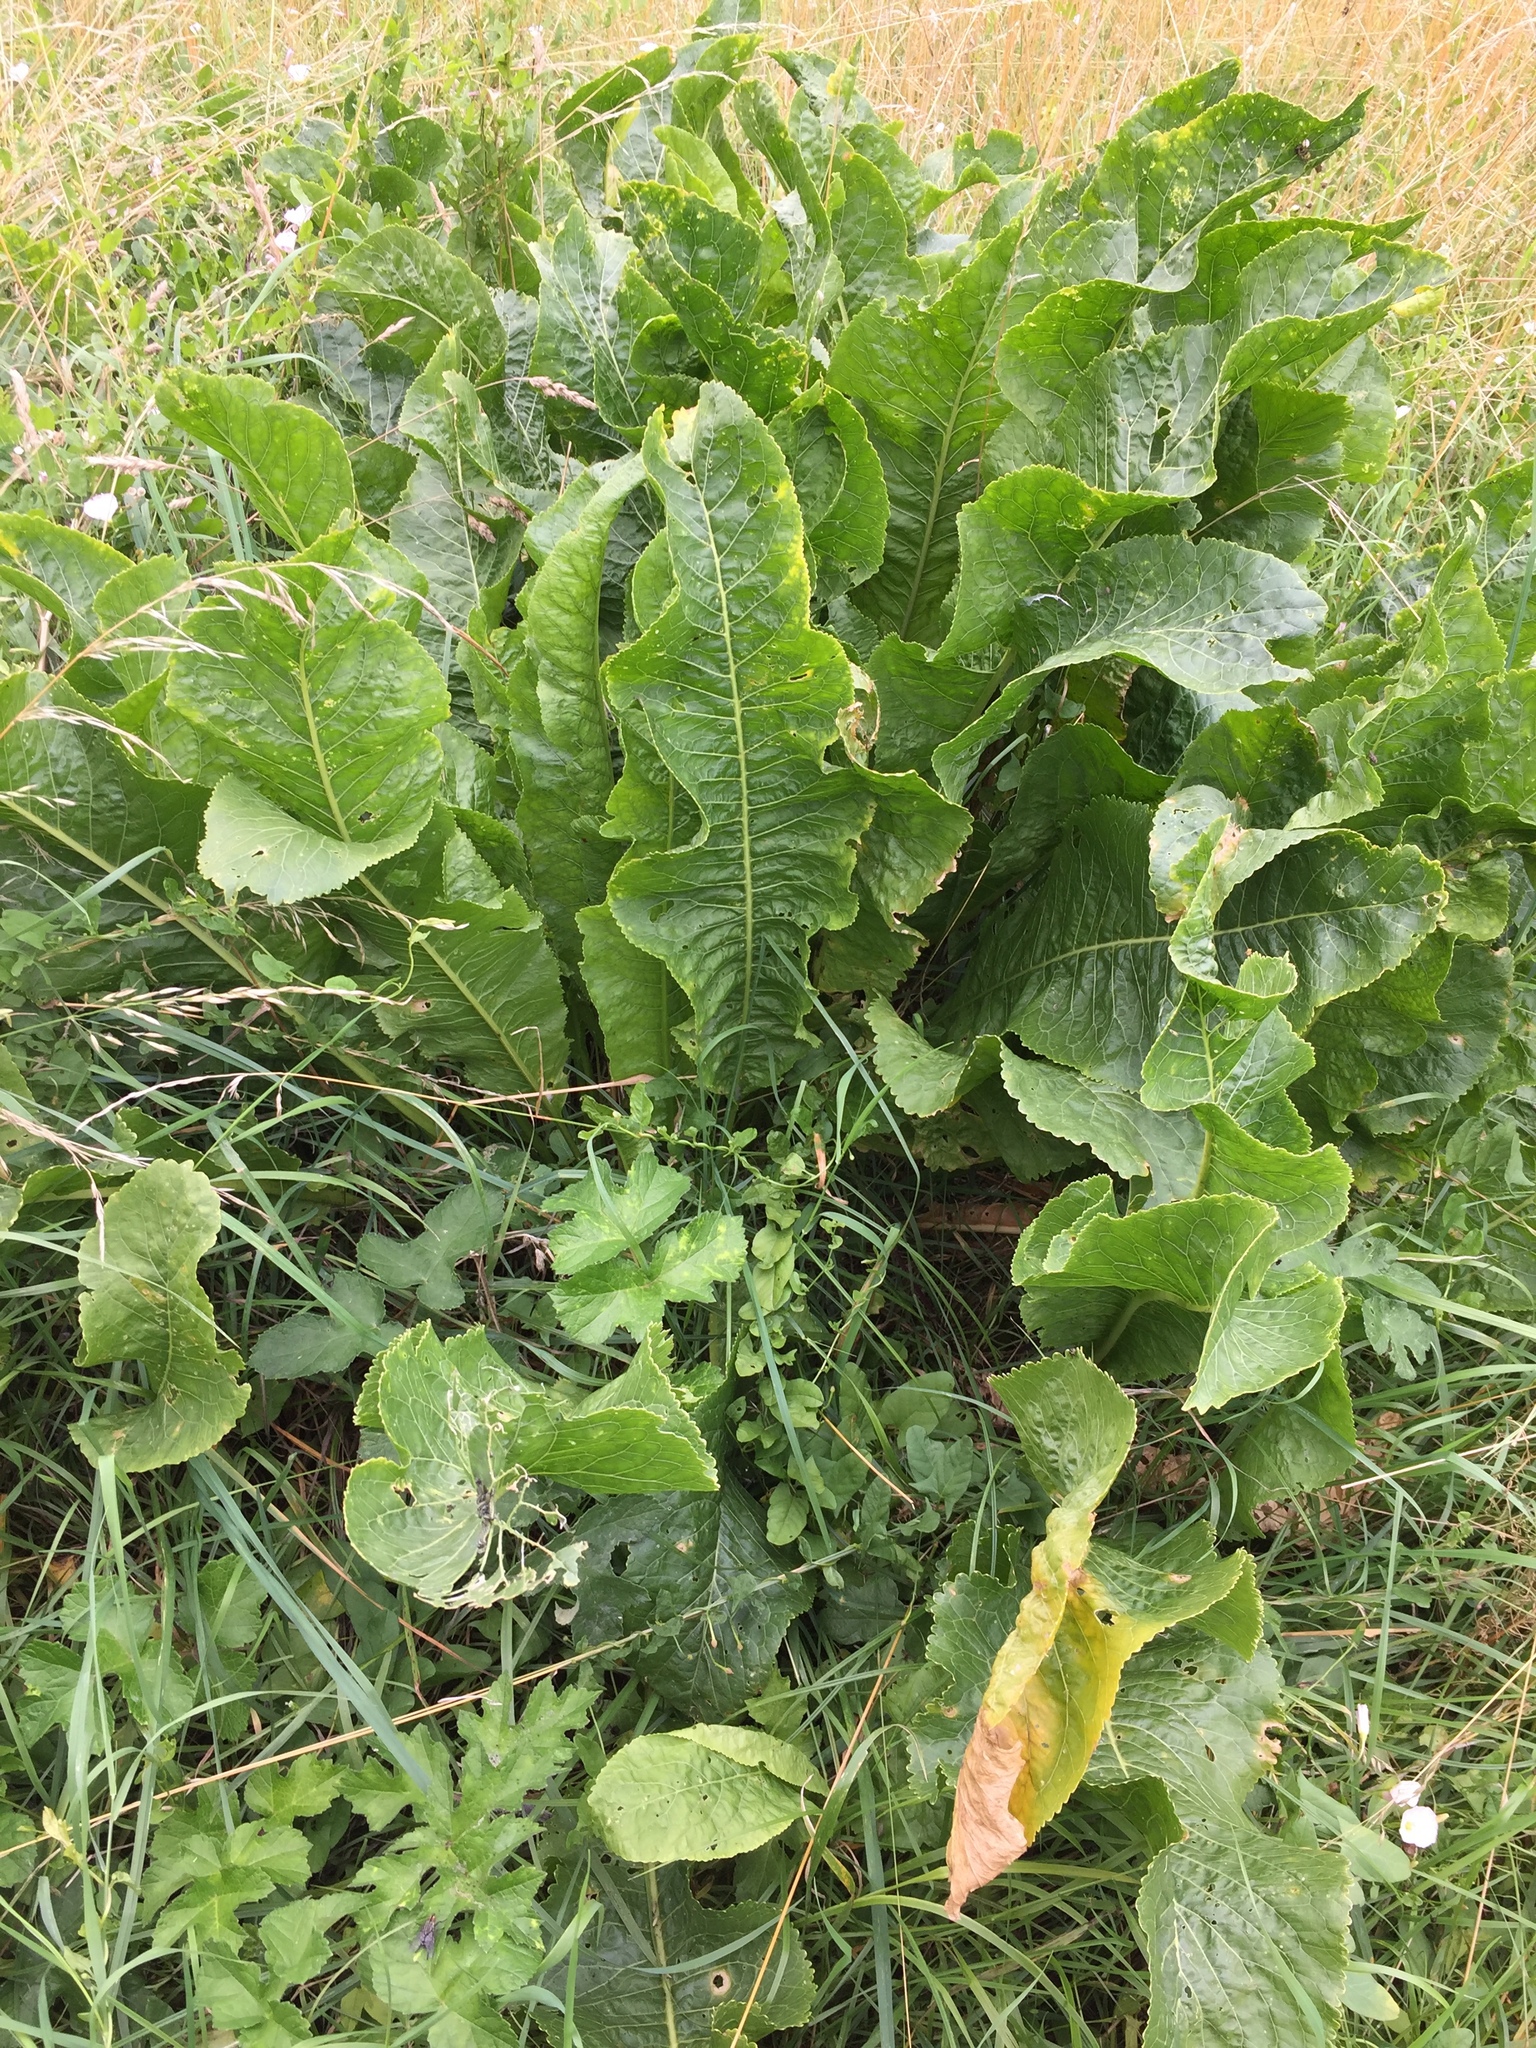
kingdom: Plantae
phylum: Tracheophyta
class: Magnoliopsida
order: Brassicales
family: Brassicaceae
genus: Armoracia
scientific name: Armoracia rusticana
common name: Horseradish
